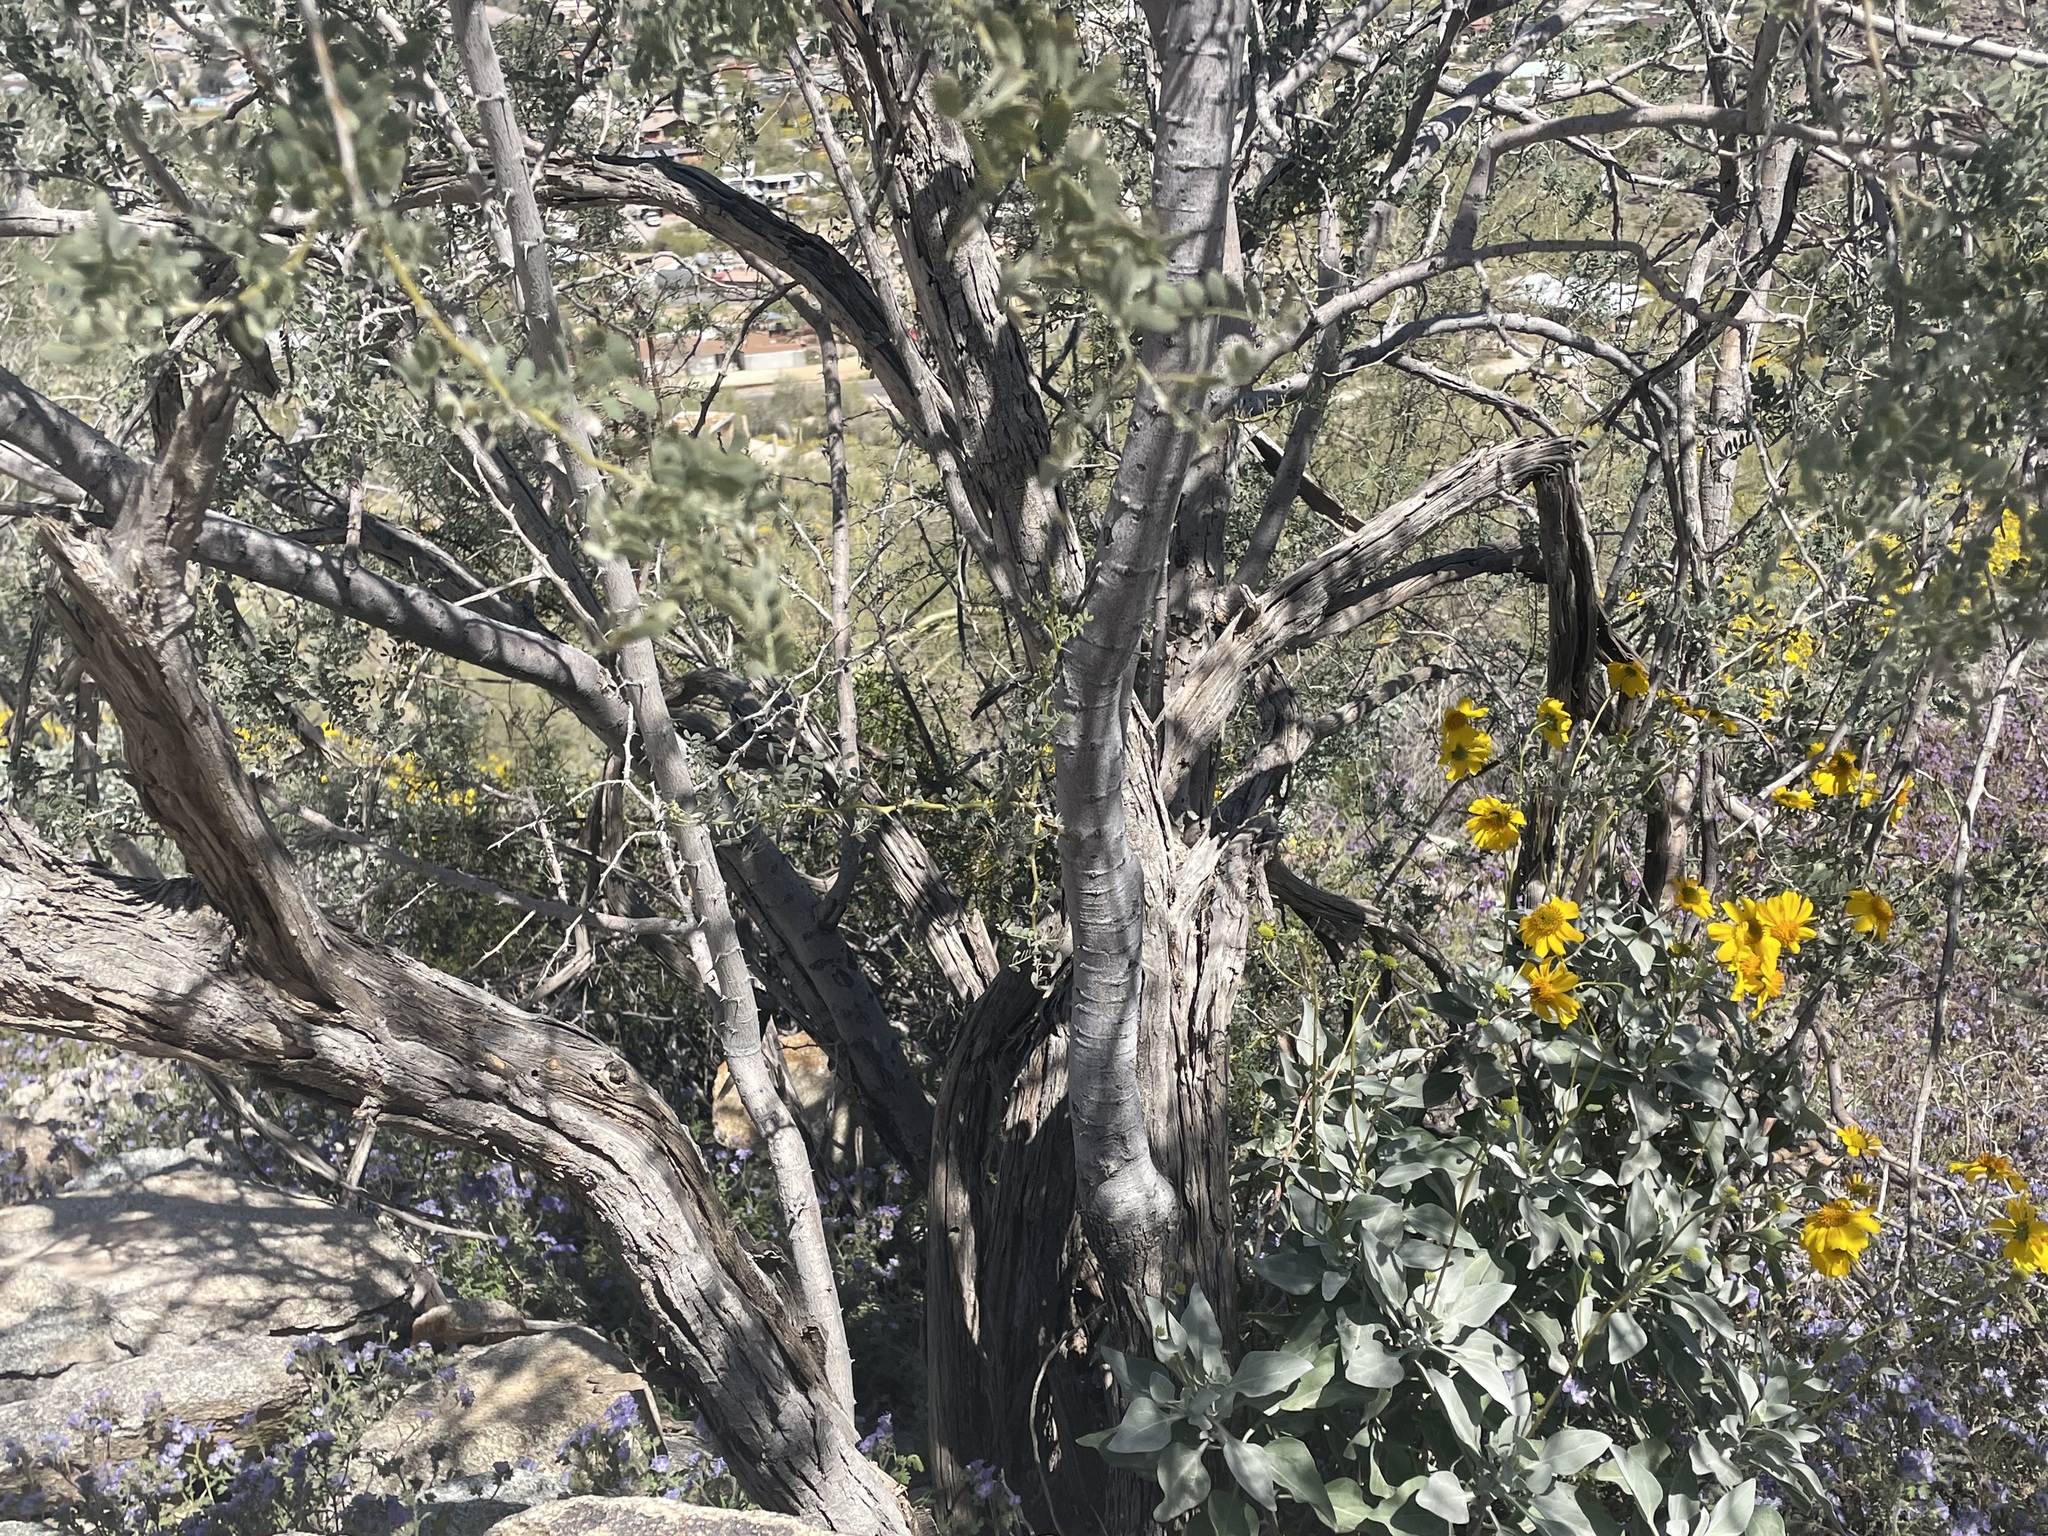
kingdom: Plantae
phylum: Tracheophyta
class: Magnoliopsida
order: Fabales
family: Fabaceae
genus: Olneya
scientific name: Olneya tesota
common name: Desert ironwood
